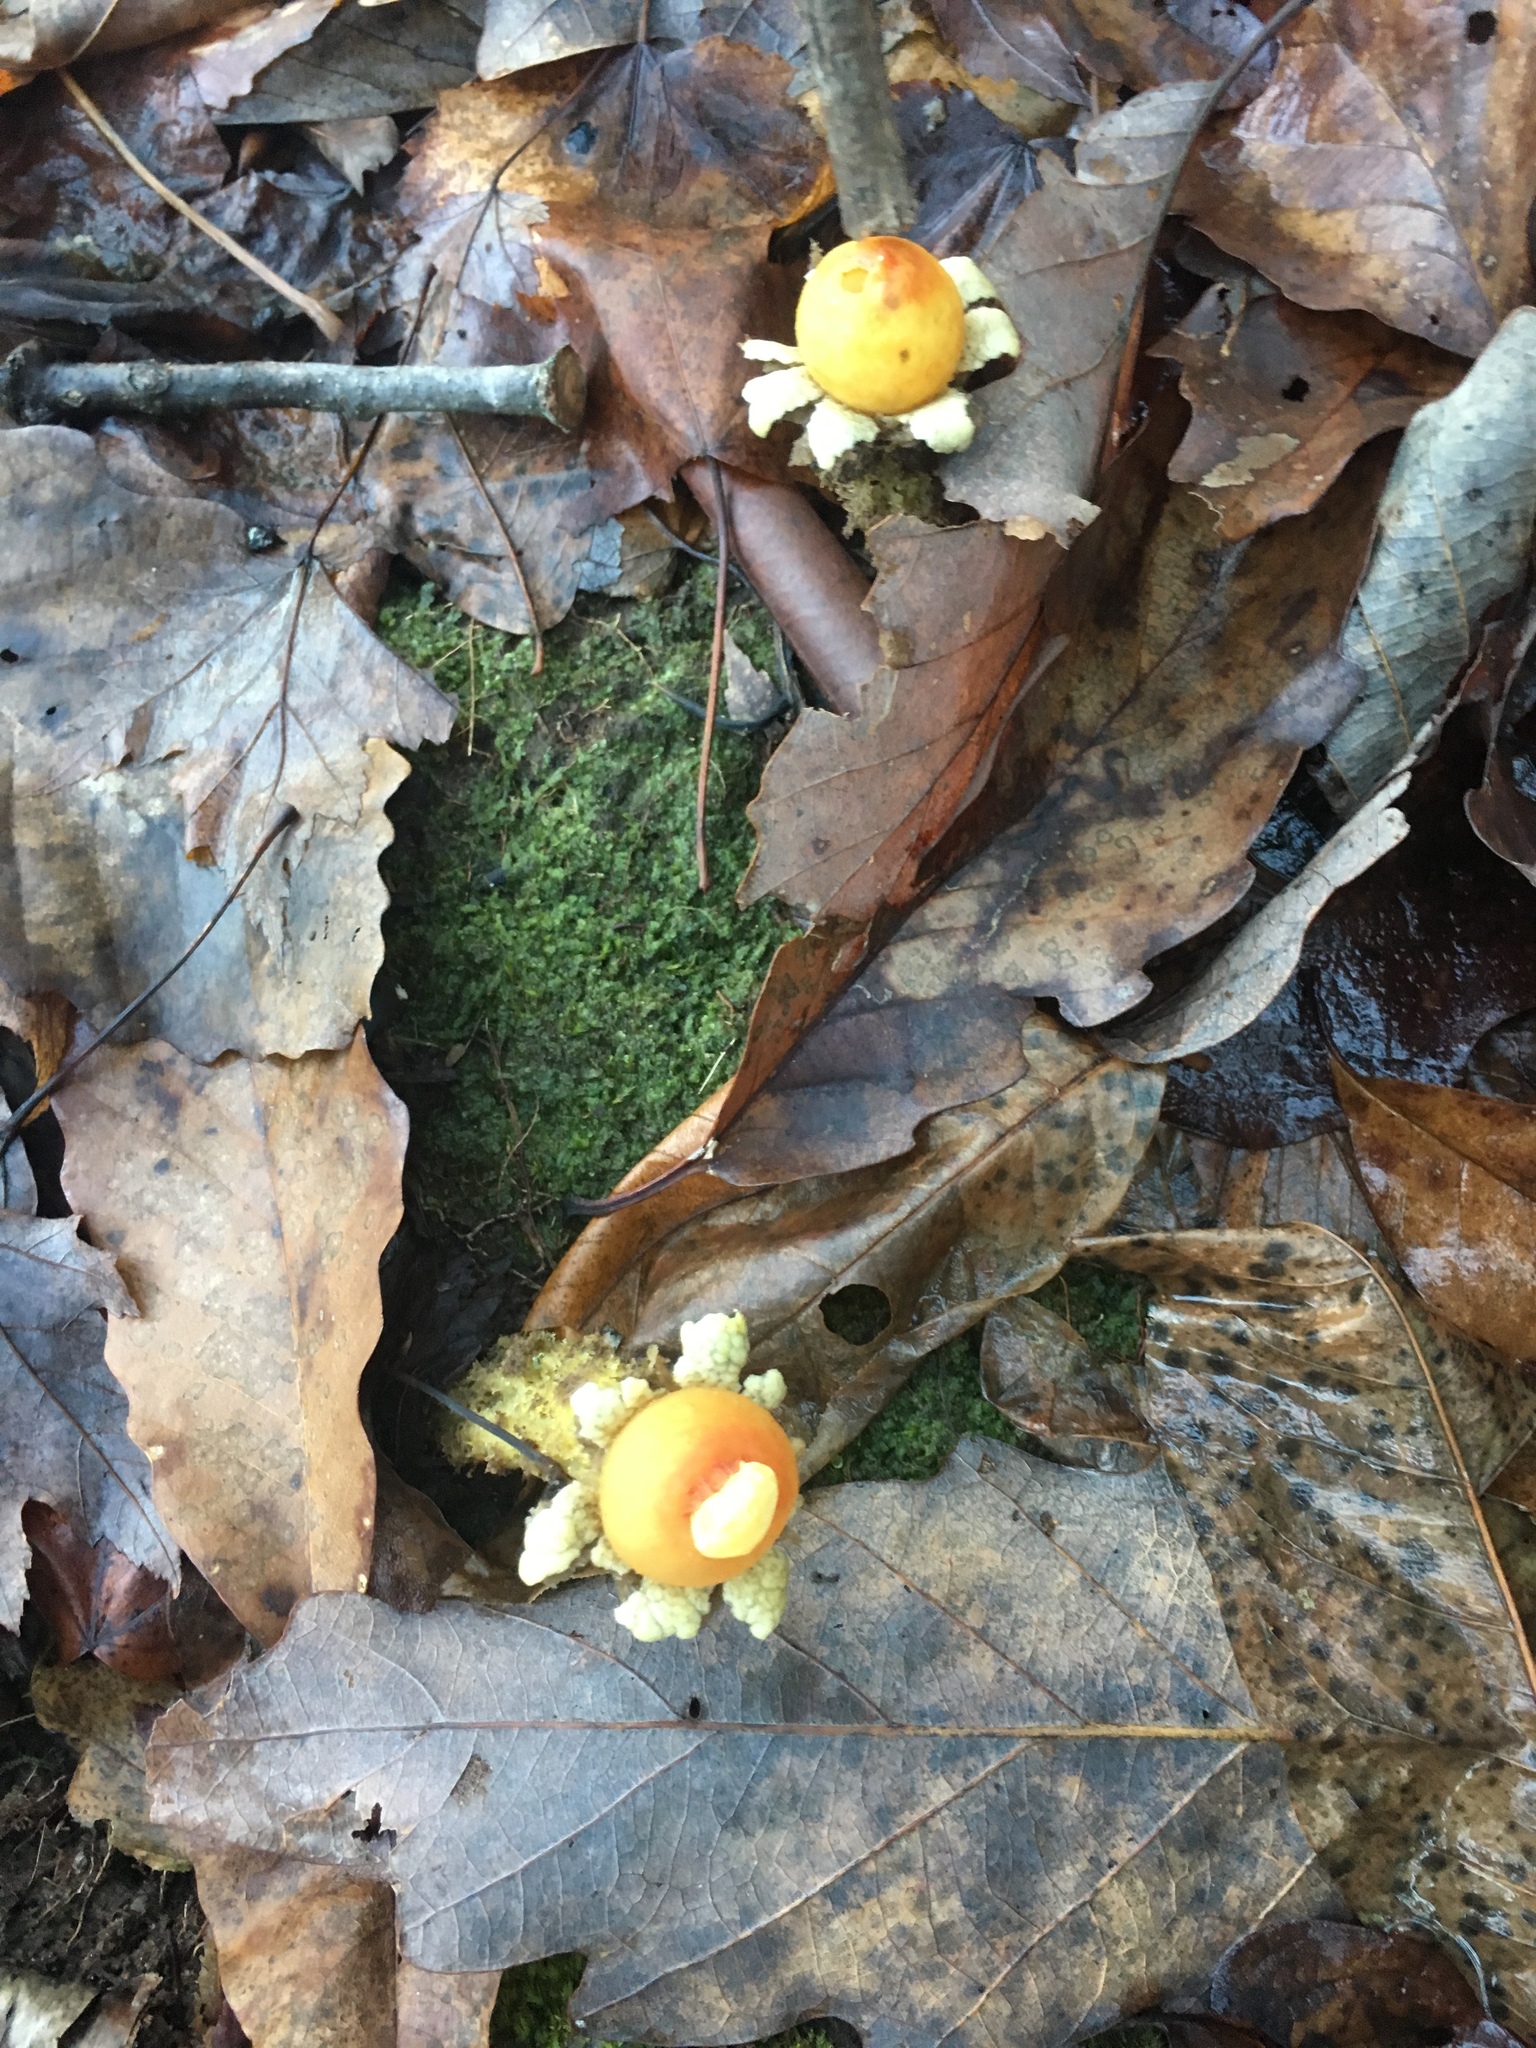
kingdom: Fungi
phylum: Basidiomycota
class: Agaricomycetes
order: Boletales
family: Calostomataceae
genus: Calostoma
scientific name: Calostoma lutescens
